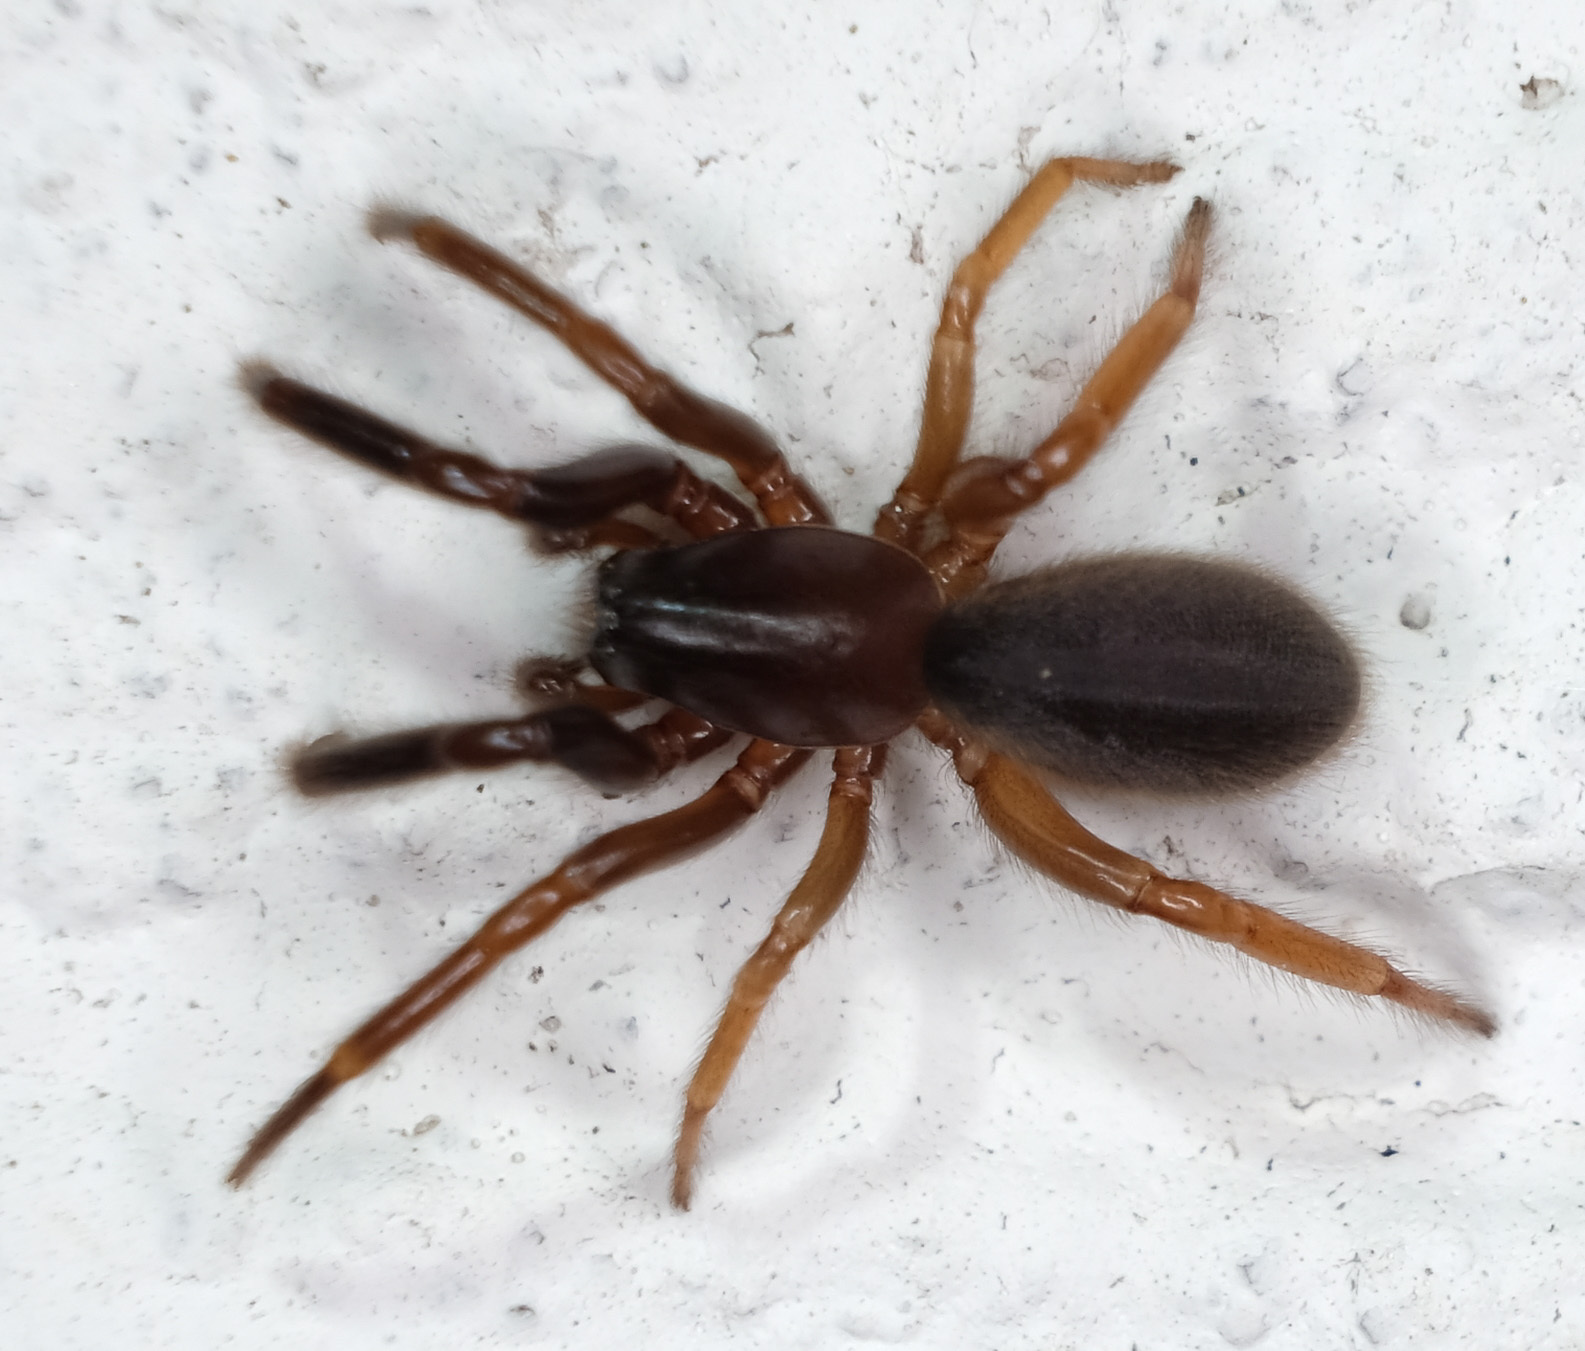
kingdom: Animalia
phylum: Arthropoda
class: Arachnida
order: Araneae
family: Segestriidae
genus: Ariadna
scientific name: Ariadna bicolor
